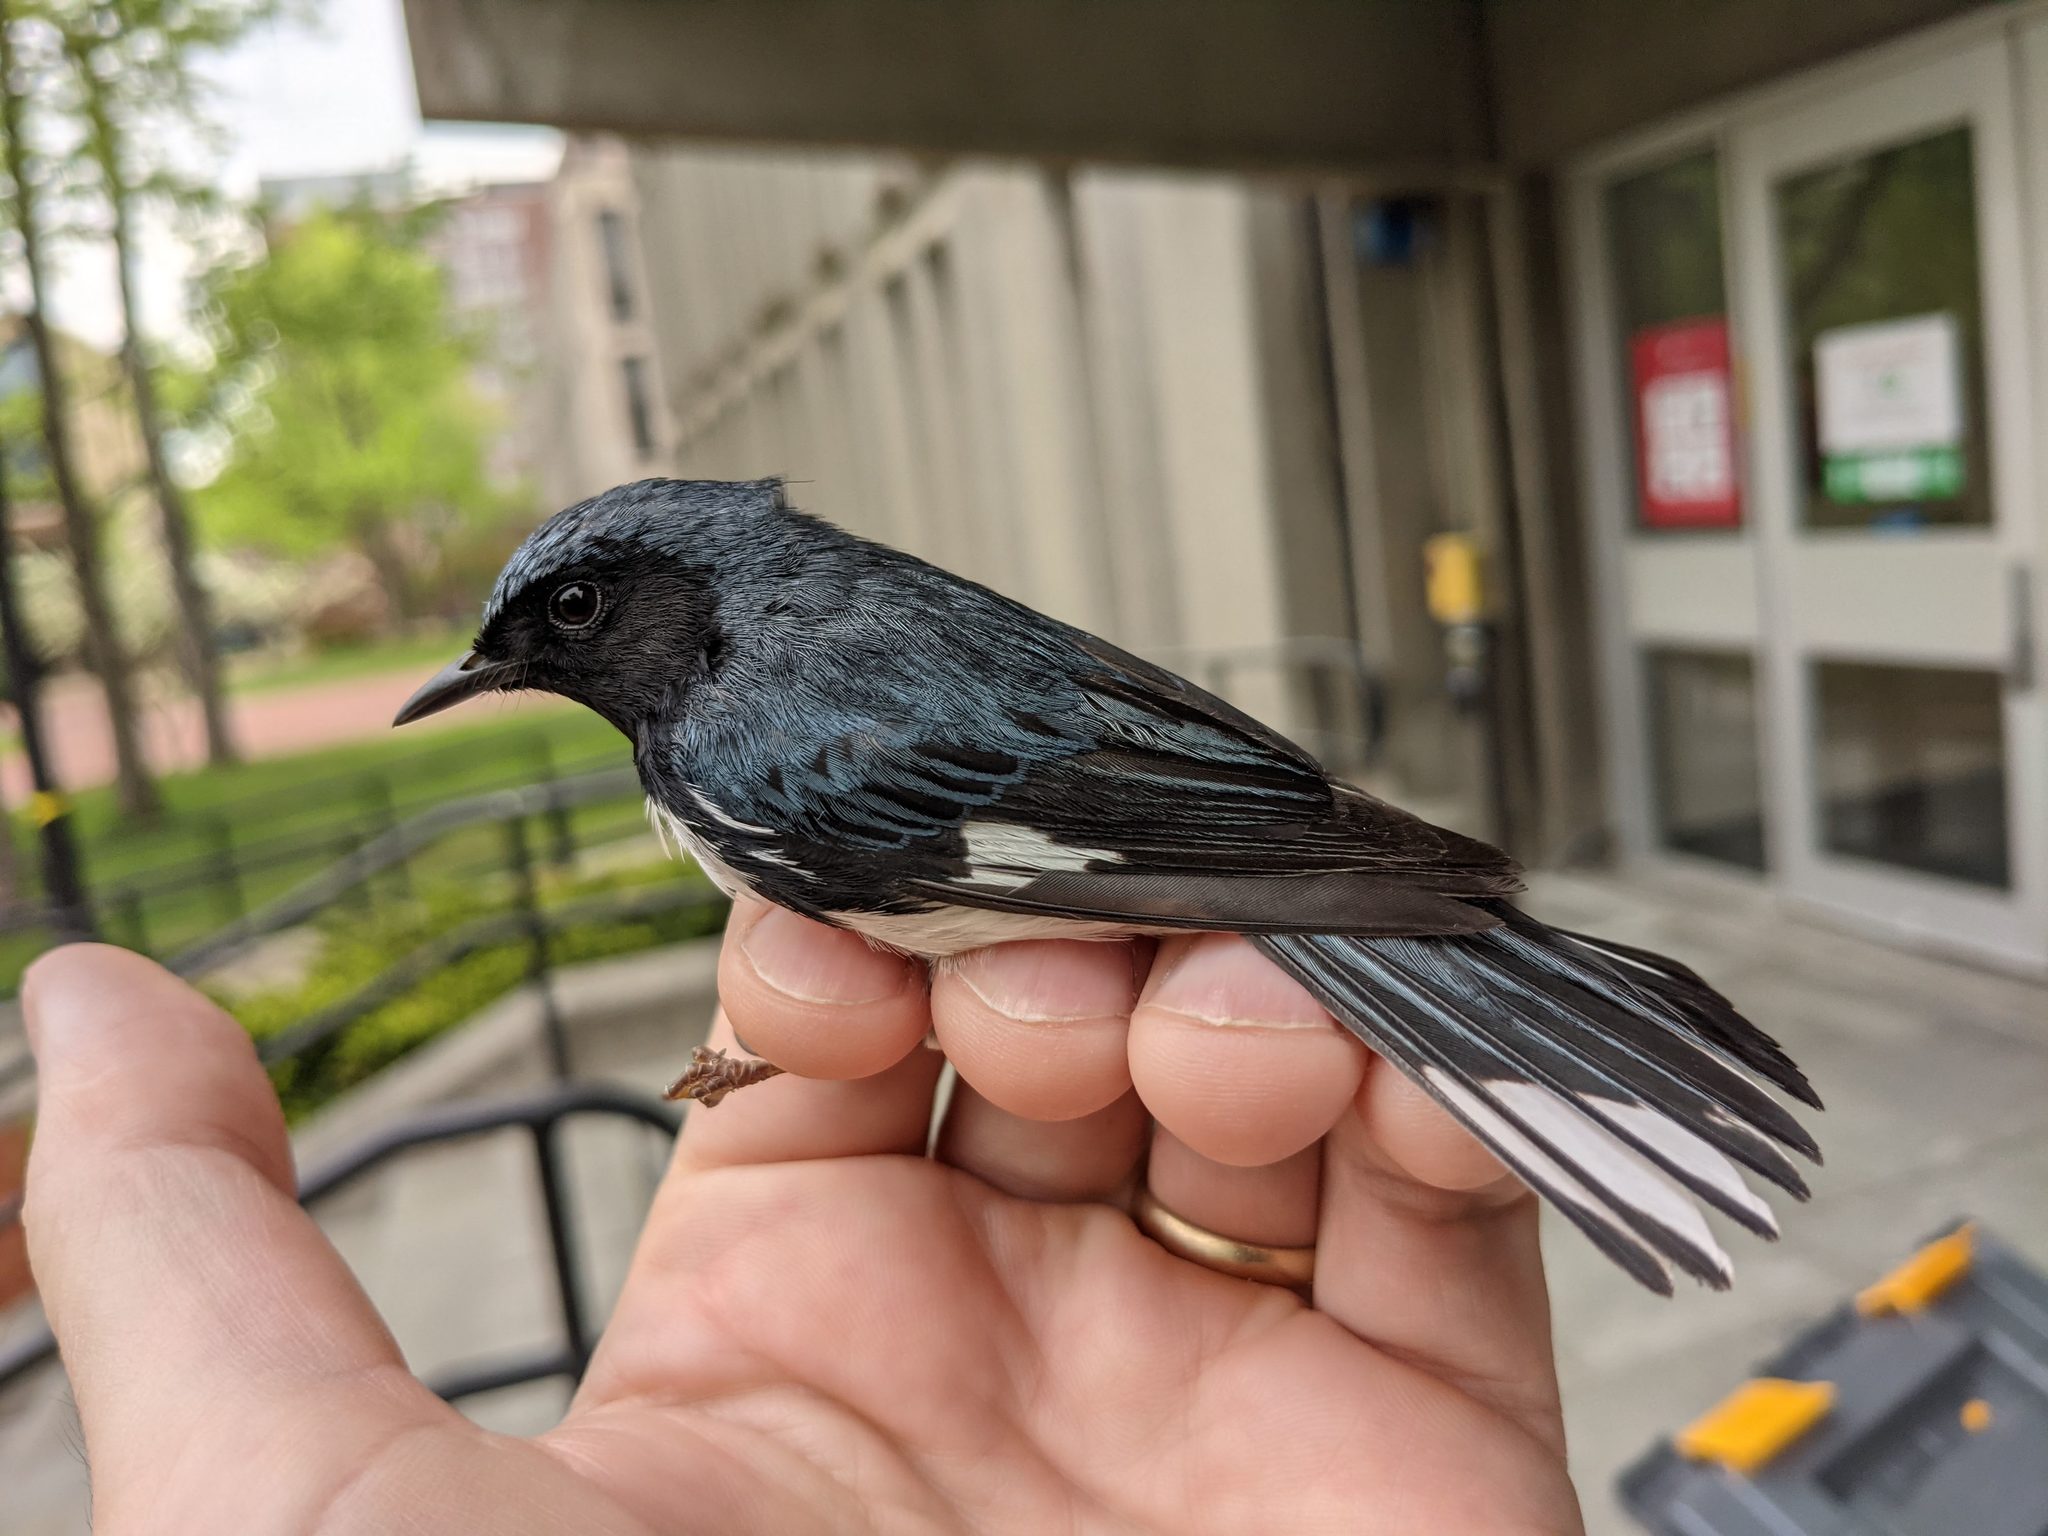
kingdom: Animalia
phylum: Chordata
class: Aves
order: Passeriformes
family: Parulidae
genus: Setophaga
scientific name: Setophaga caerulescens
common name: Black-throated blue warbler
